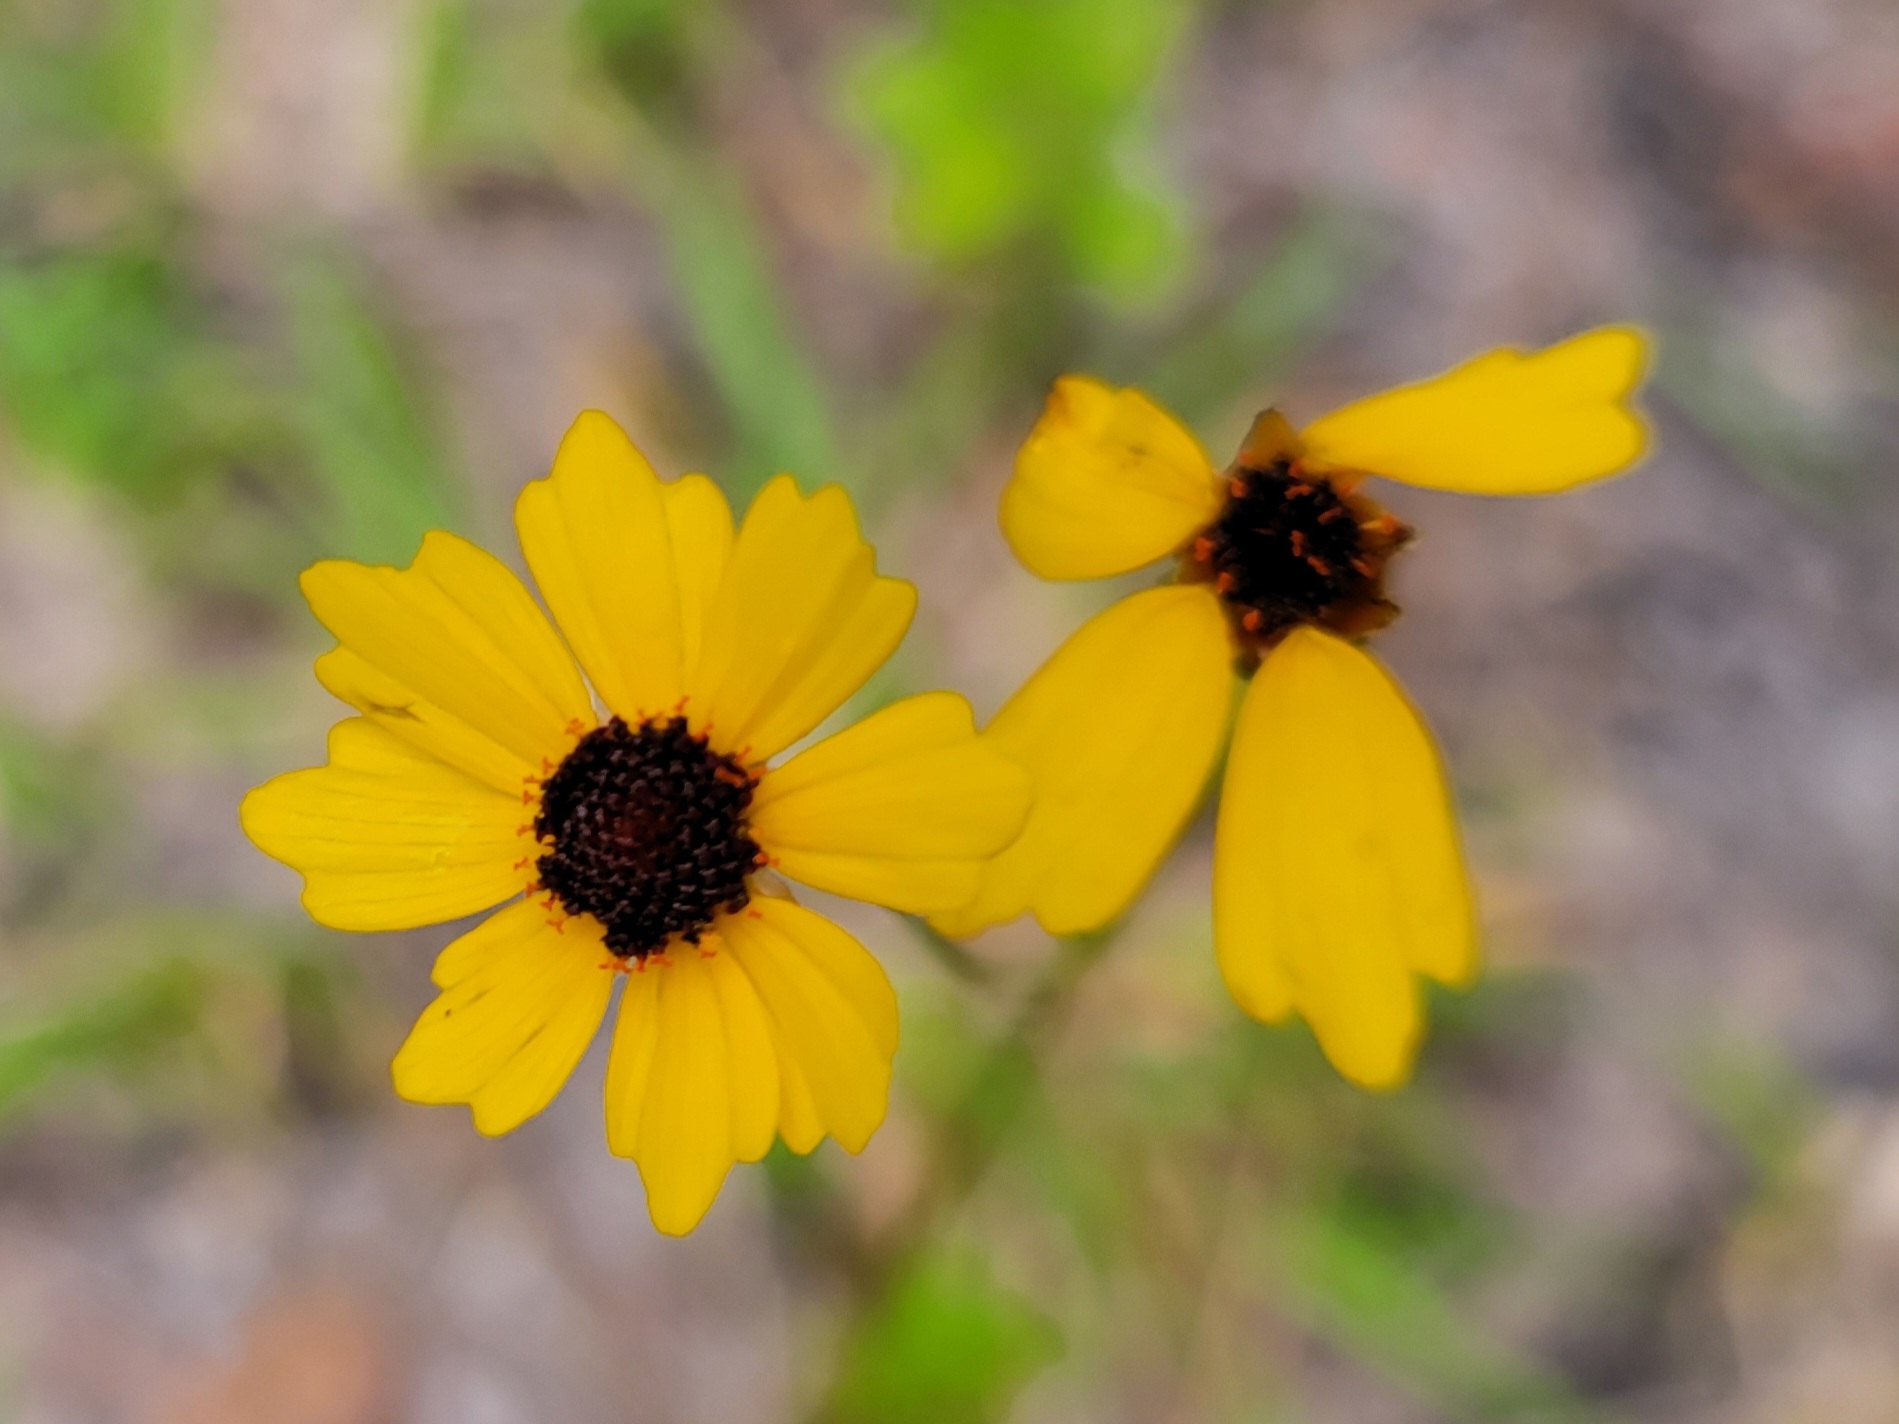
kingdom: Plantae
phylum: Tracheophyta
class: Magnoliopsida
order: Asterales
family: Asteraceae
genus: Coreopsis
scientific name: Coreopsis leavenworthii
